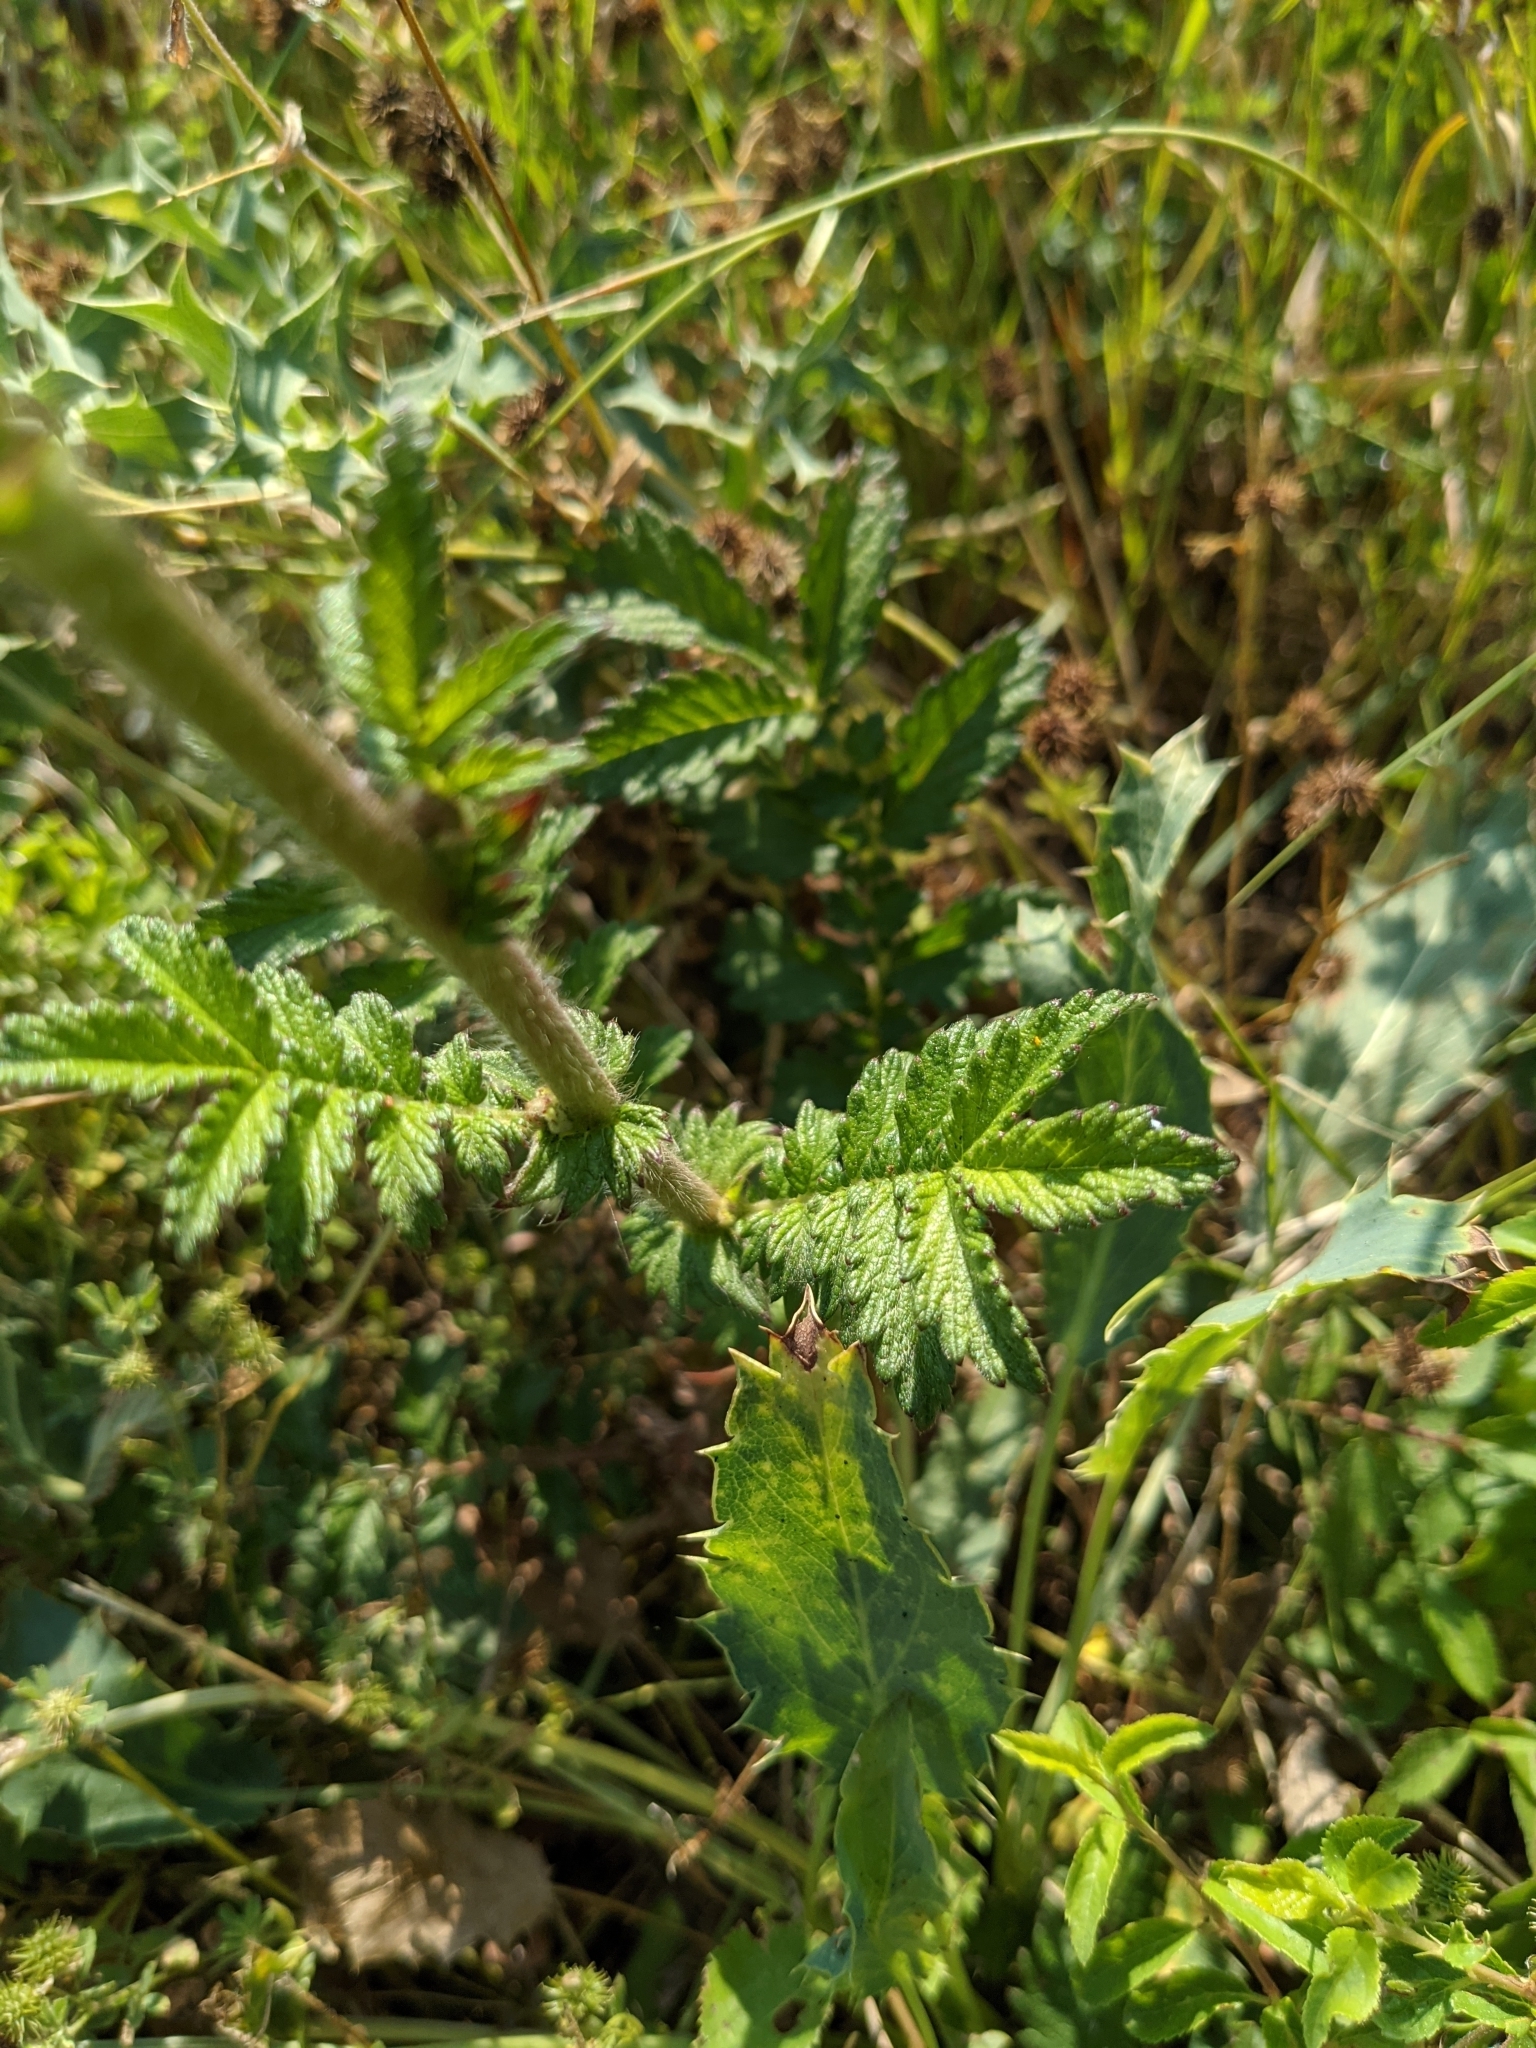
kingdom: Plantae
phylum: Tracheophyta
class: Magnoliopsida
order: Rosales
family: Rosaceae
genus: Agrimonia
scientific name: Agrimonia eupatoria
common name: Agrimony
